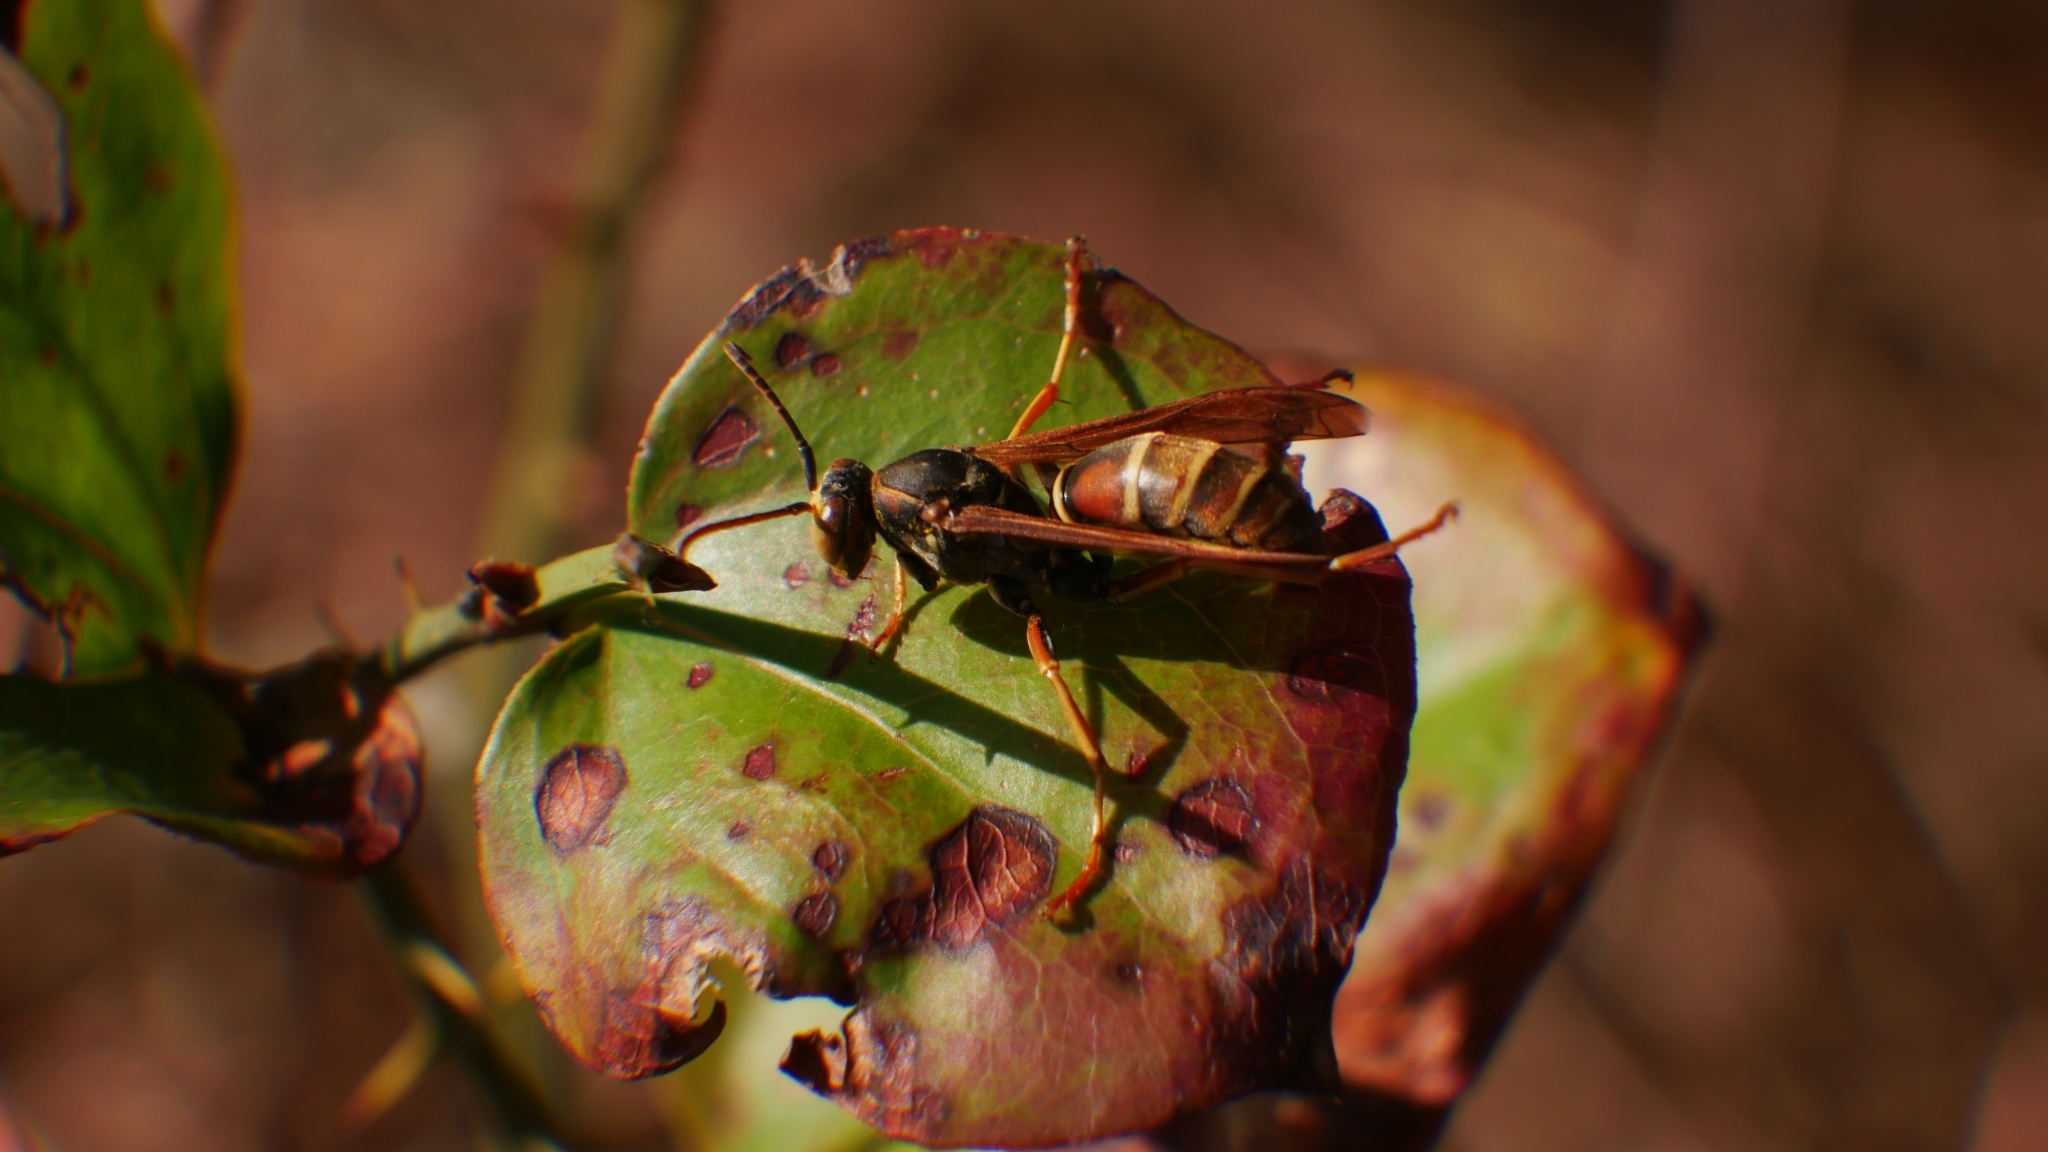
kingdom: Animalia
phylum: Arthropoda
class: Insecta
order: Hymenoptera
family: Eumenidae
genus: Polistes
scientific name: Polistes dorsalis
